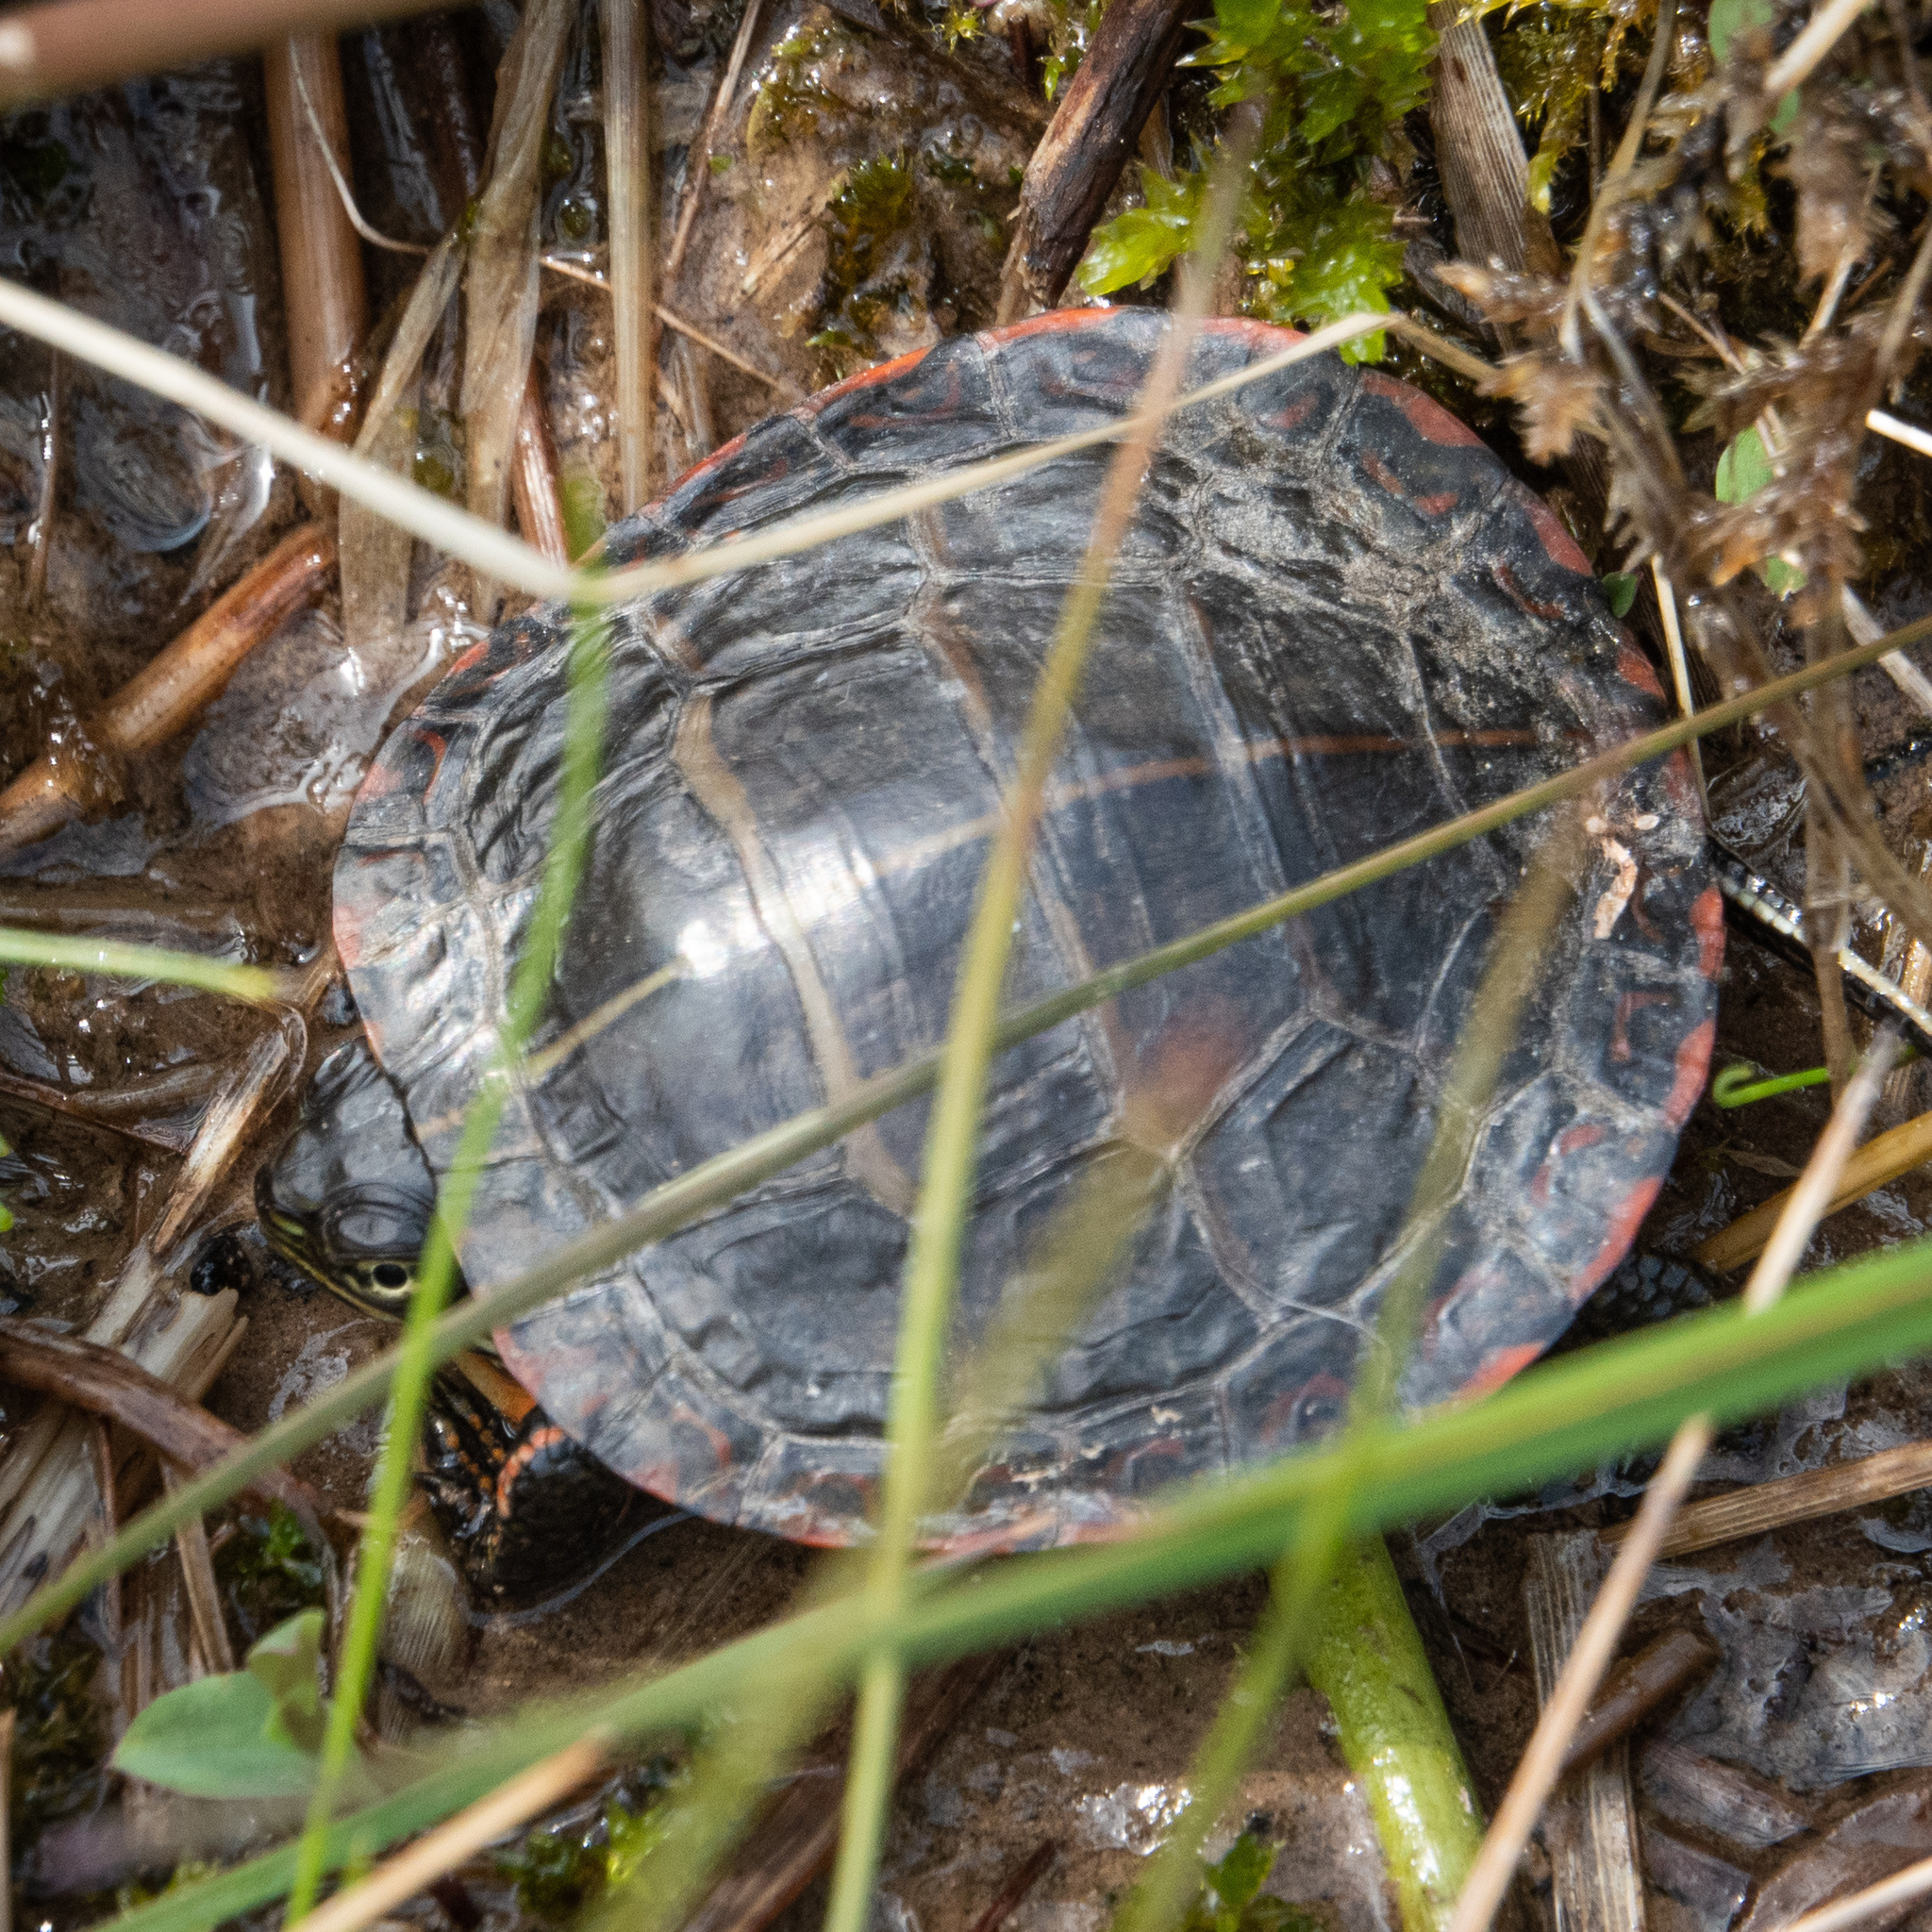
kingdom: Animalia
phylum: Chordata
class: Testudines
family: Emydidae
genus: Chrysemys
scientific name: Chrysemys picta
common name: Painted turtle
